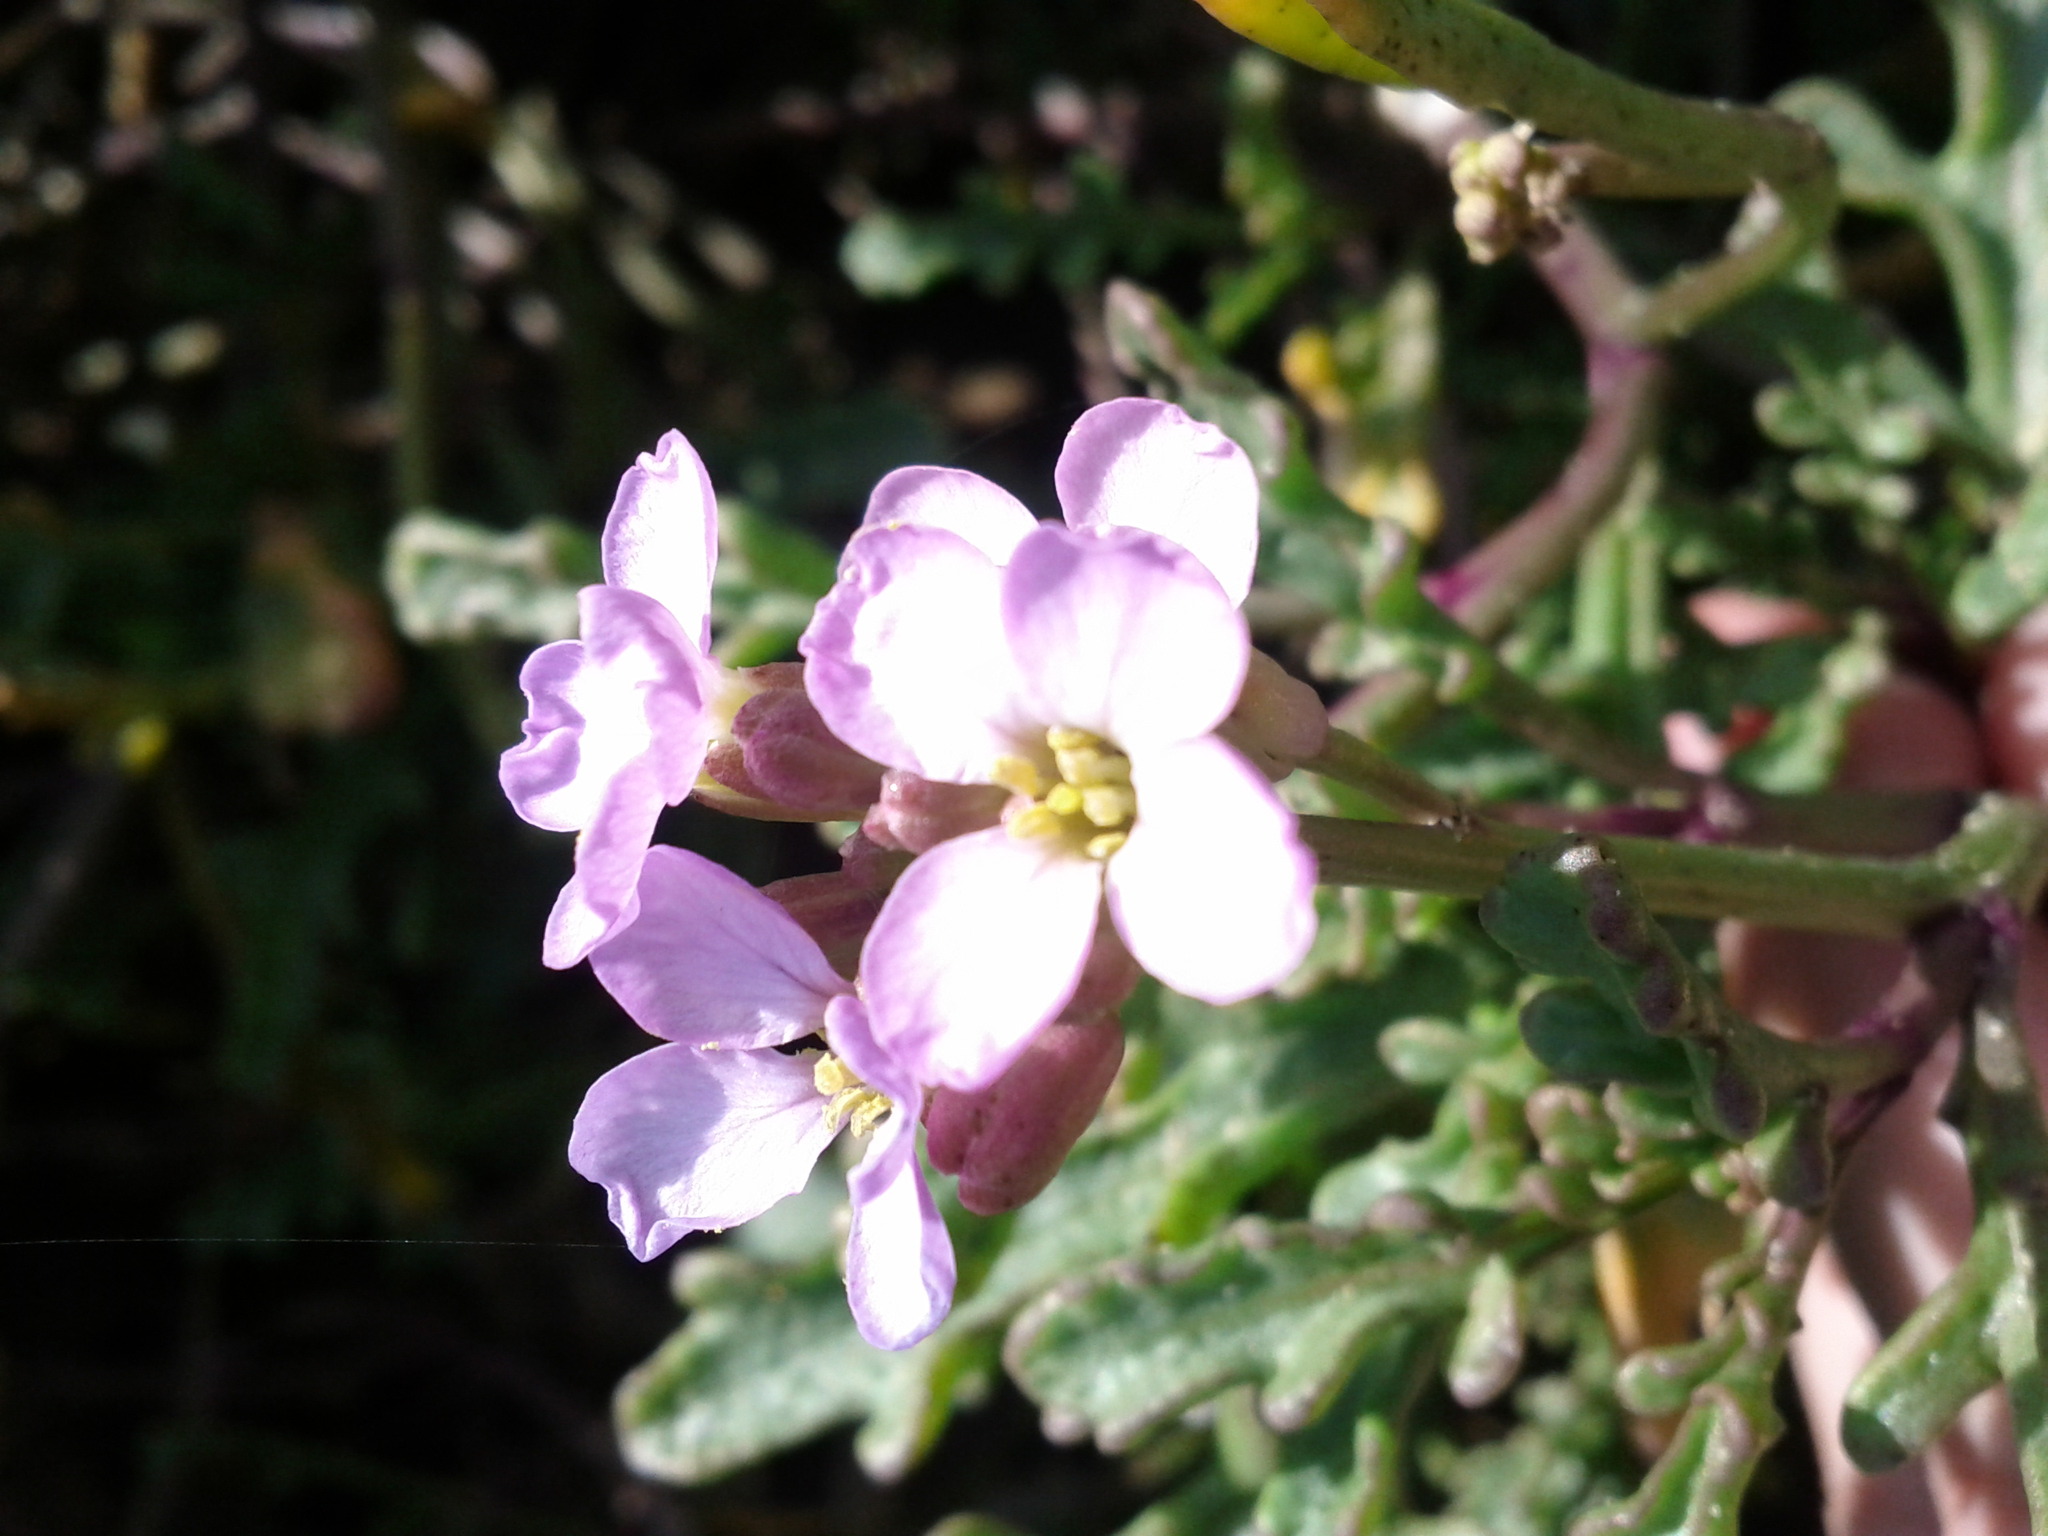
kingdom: Plantae
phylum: Tracheophyta
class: Magnoliopsida
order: Brassicales
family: Brassicaceae
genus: Cakile
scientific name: Cakile maritima
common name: Sea rocket
